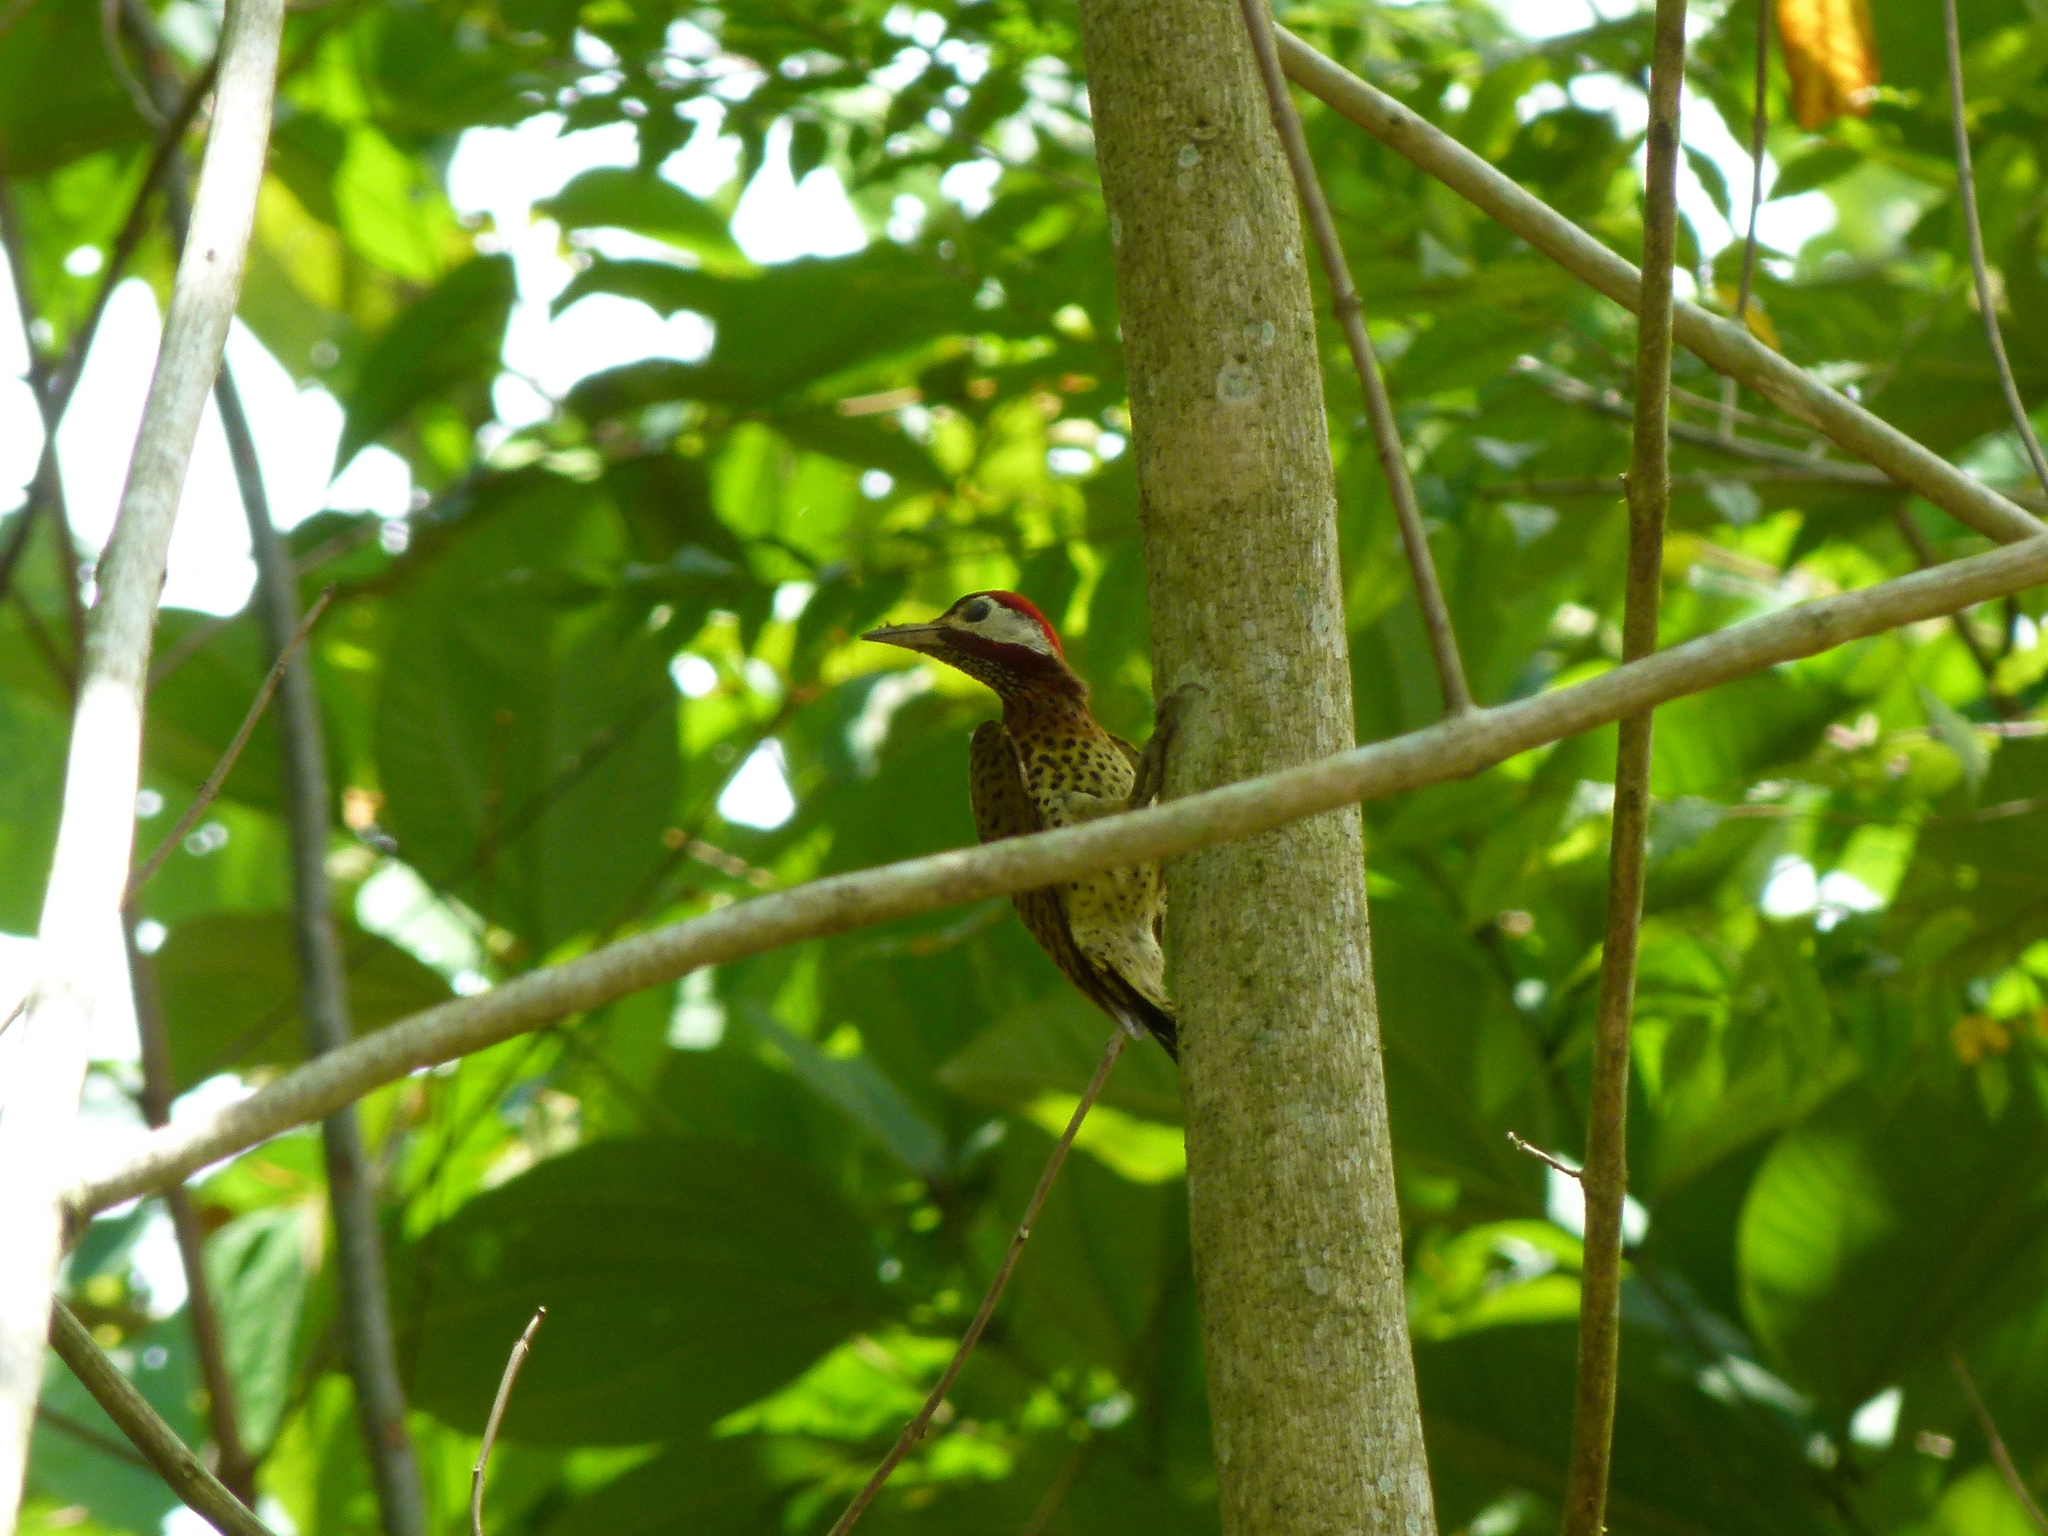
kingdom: Animalia
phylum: Chordata
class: Aves
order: Piciformes
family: Picidae
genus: Colaptes
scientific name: Colaptes punctigula
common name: Spot-breasted woodpecker
